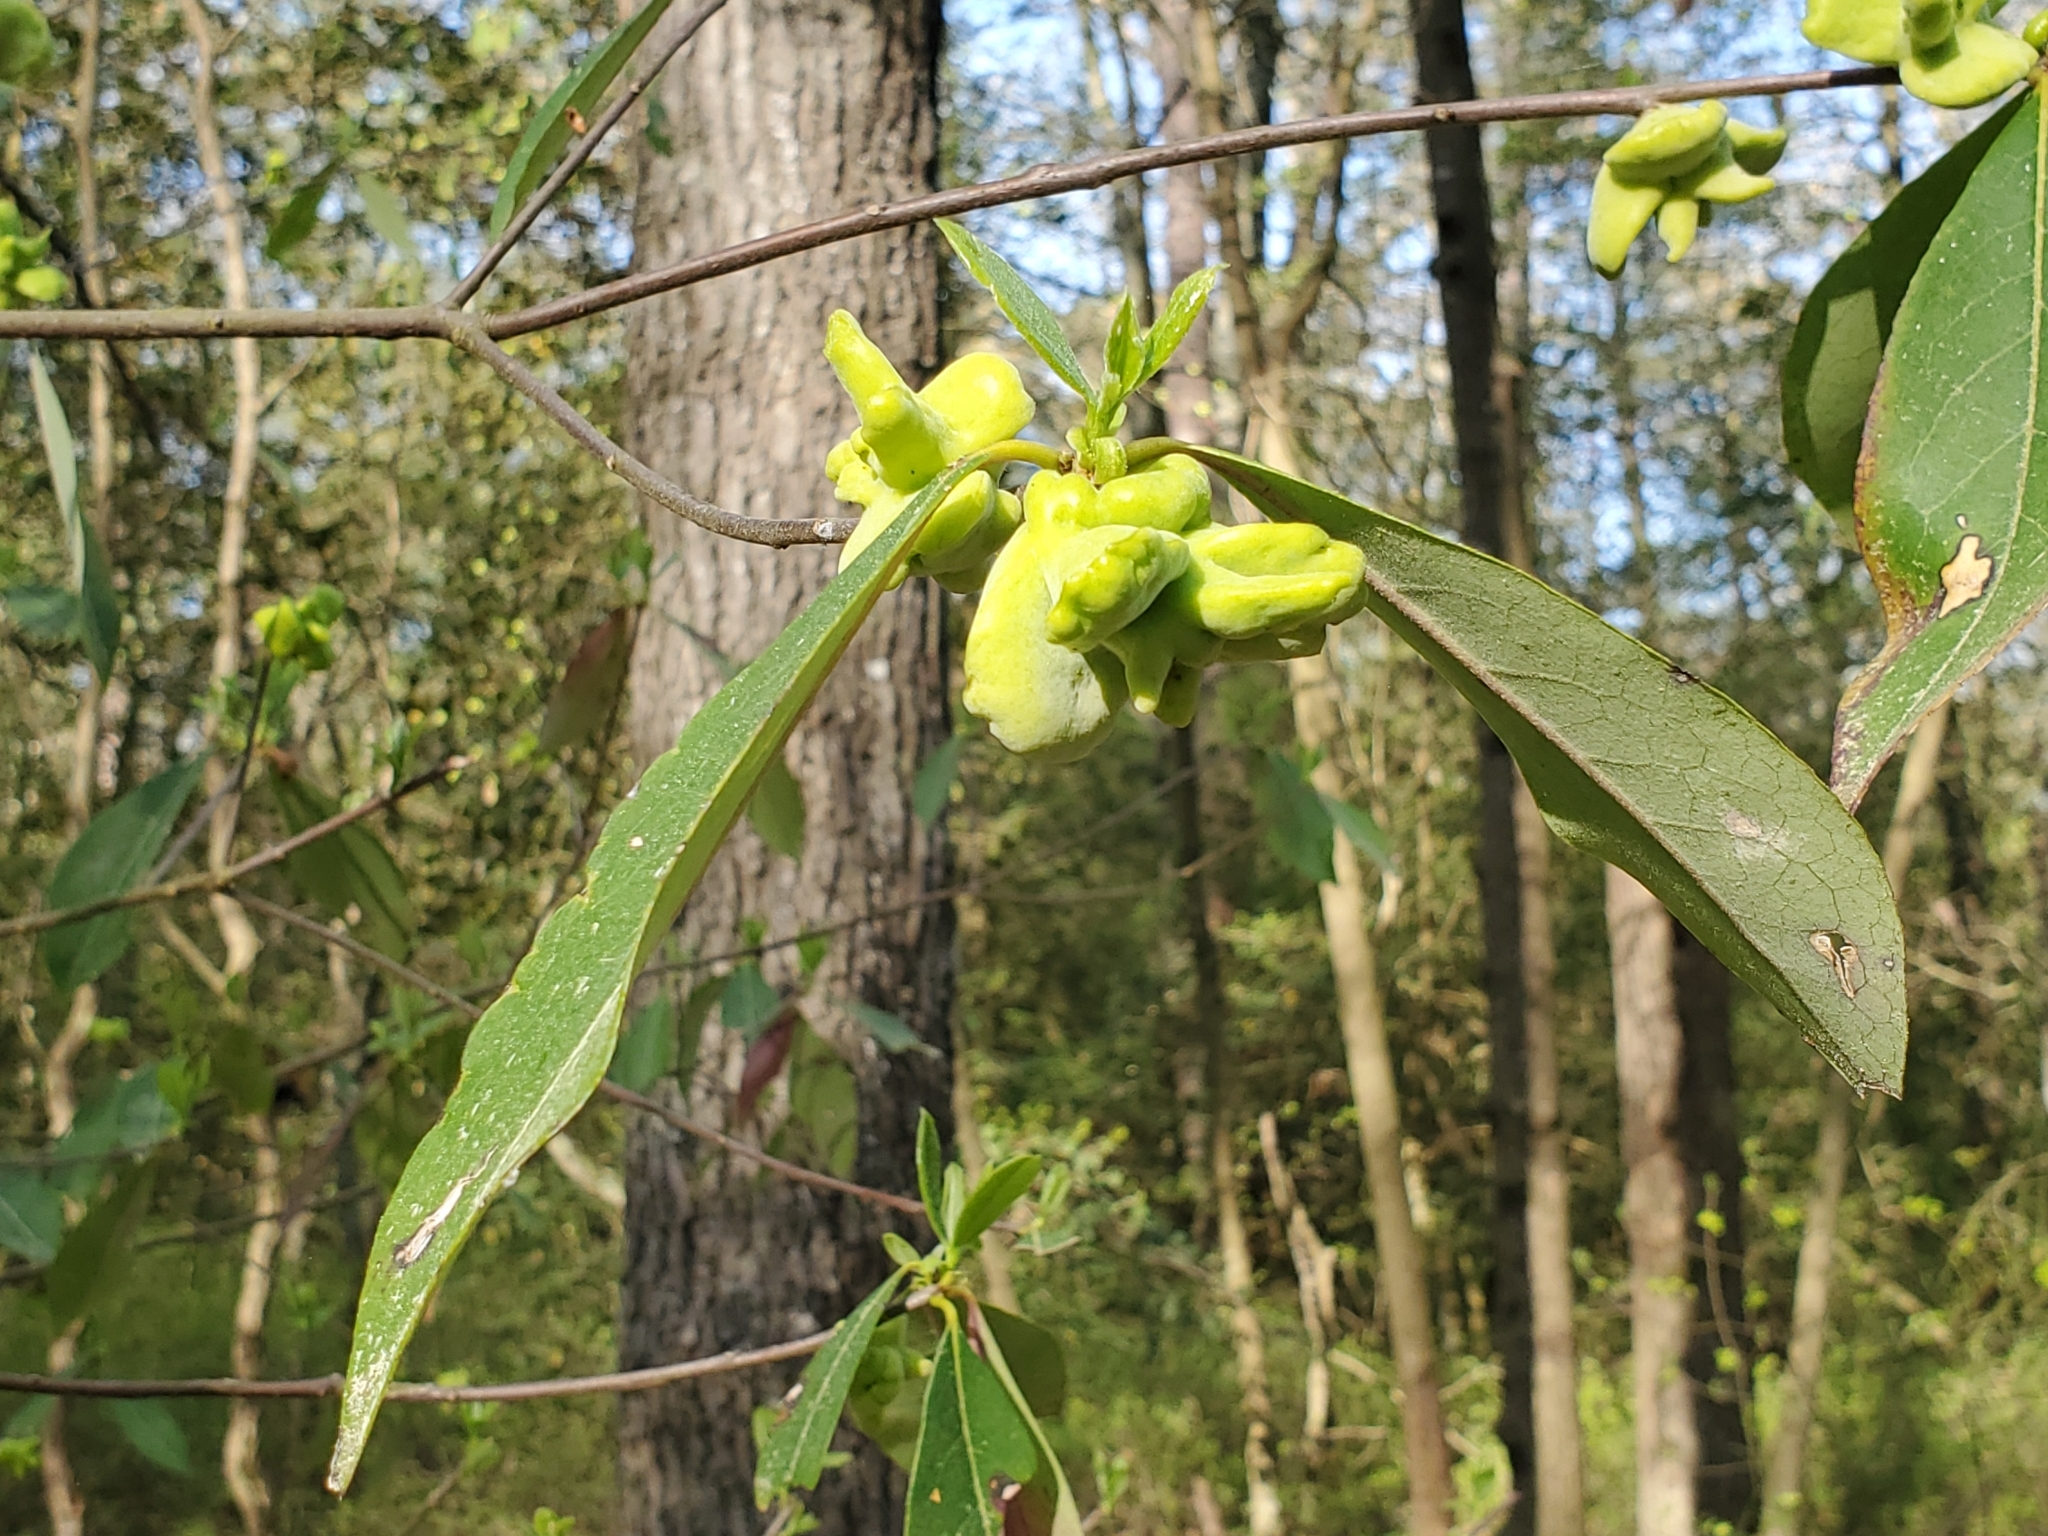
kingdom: Fungi
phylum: Basidiomycota
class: Exobasidiomycetes
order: Exobasidiales
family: Exobasidiaceae
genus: Exobasidium
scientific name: Exobasidium symploci
